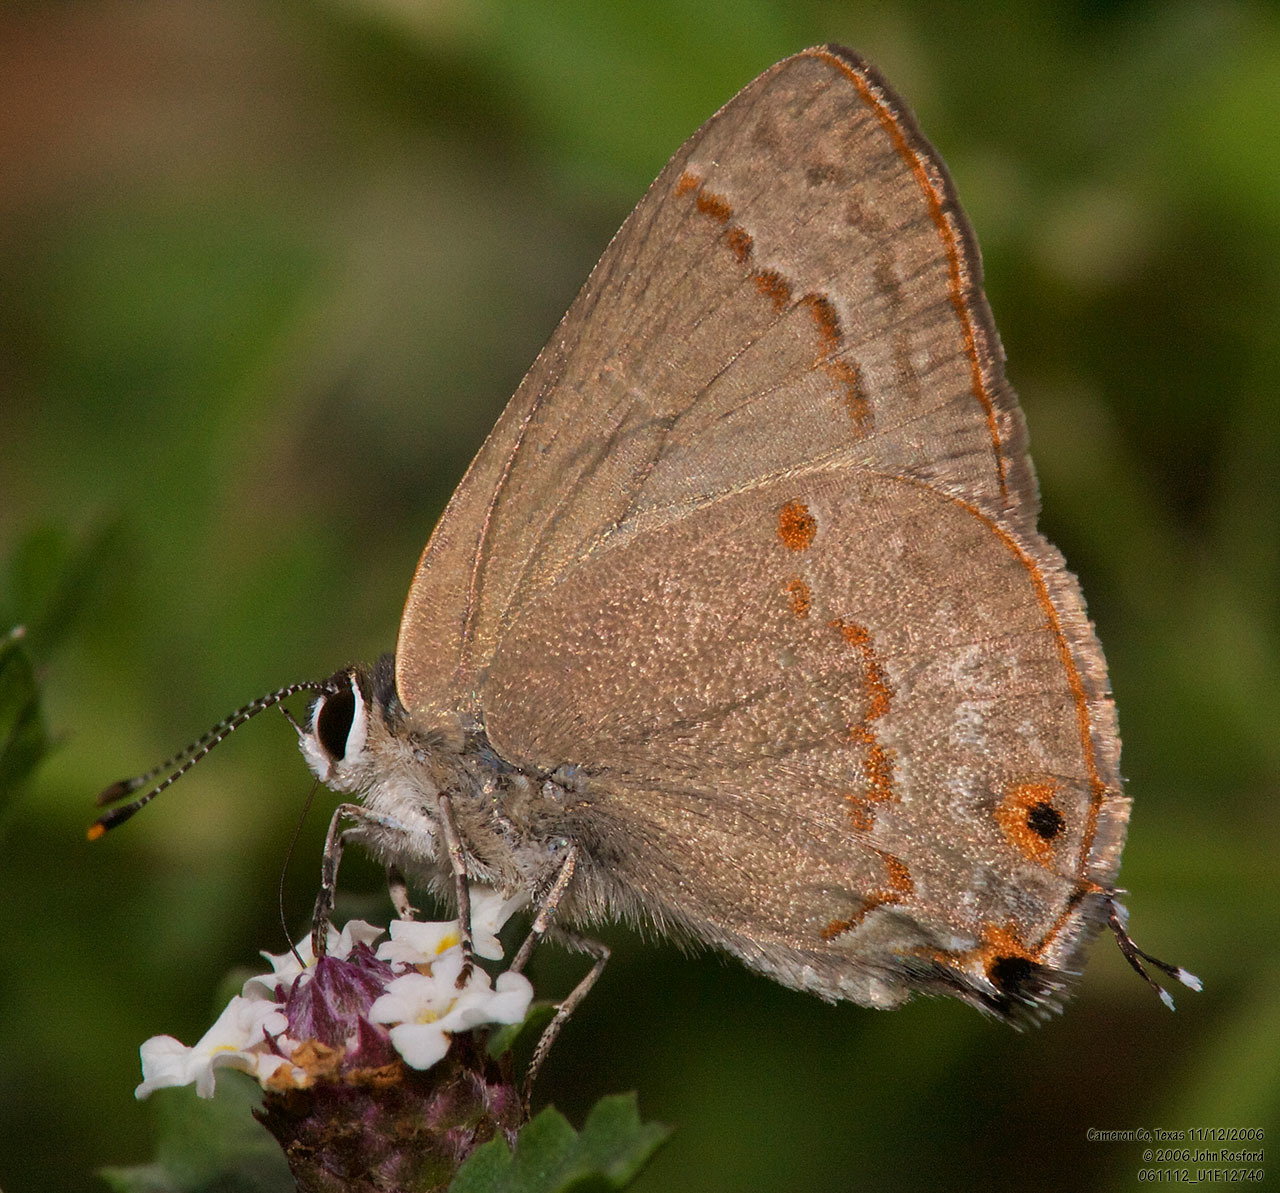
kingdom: Animalia
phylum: Arthropoda
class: Insecta
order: Lepidoptera
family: Lycaenidae
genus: Thecla
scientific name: Thecla rufofusca
